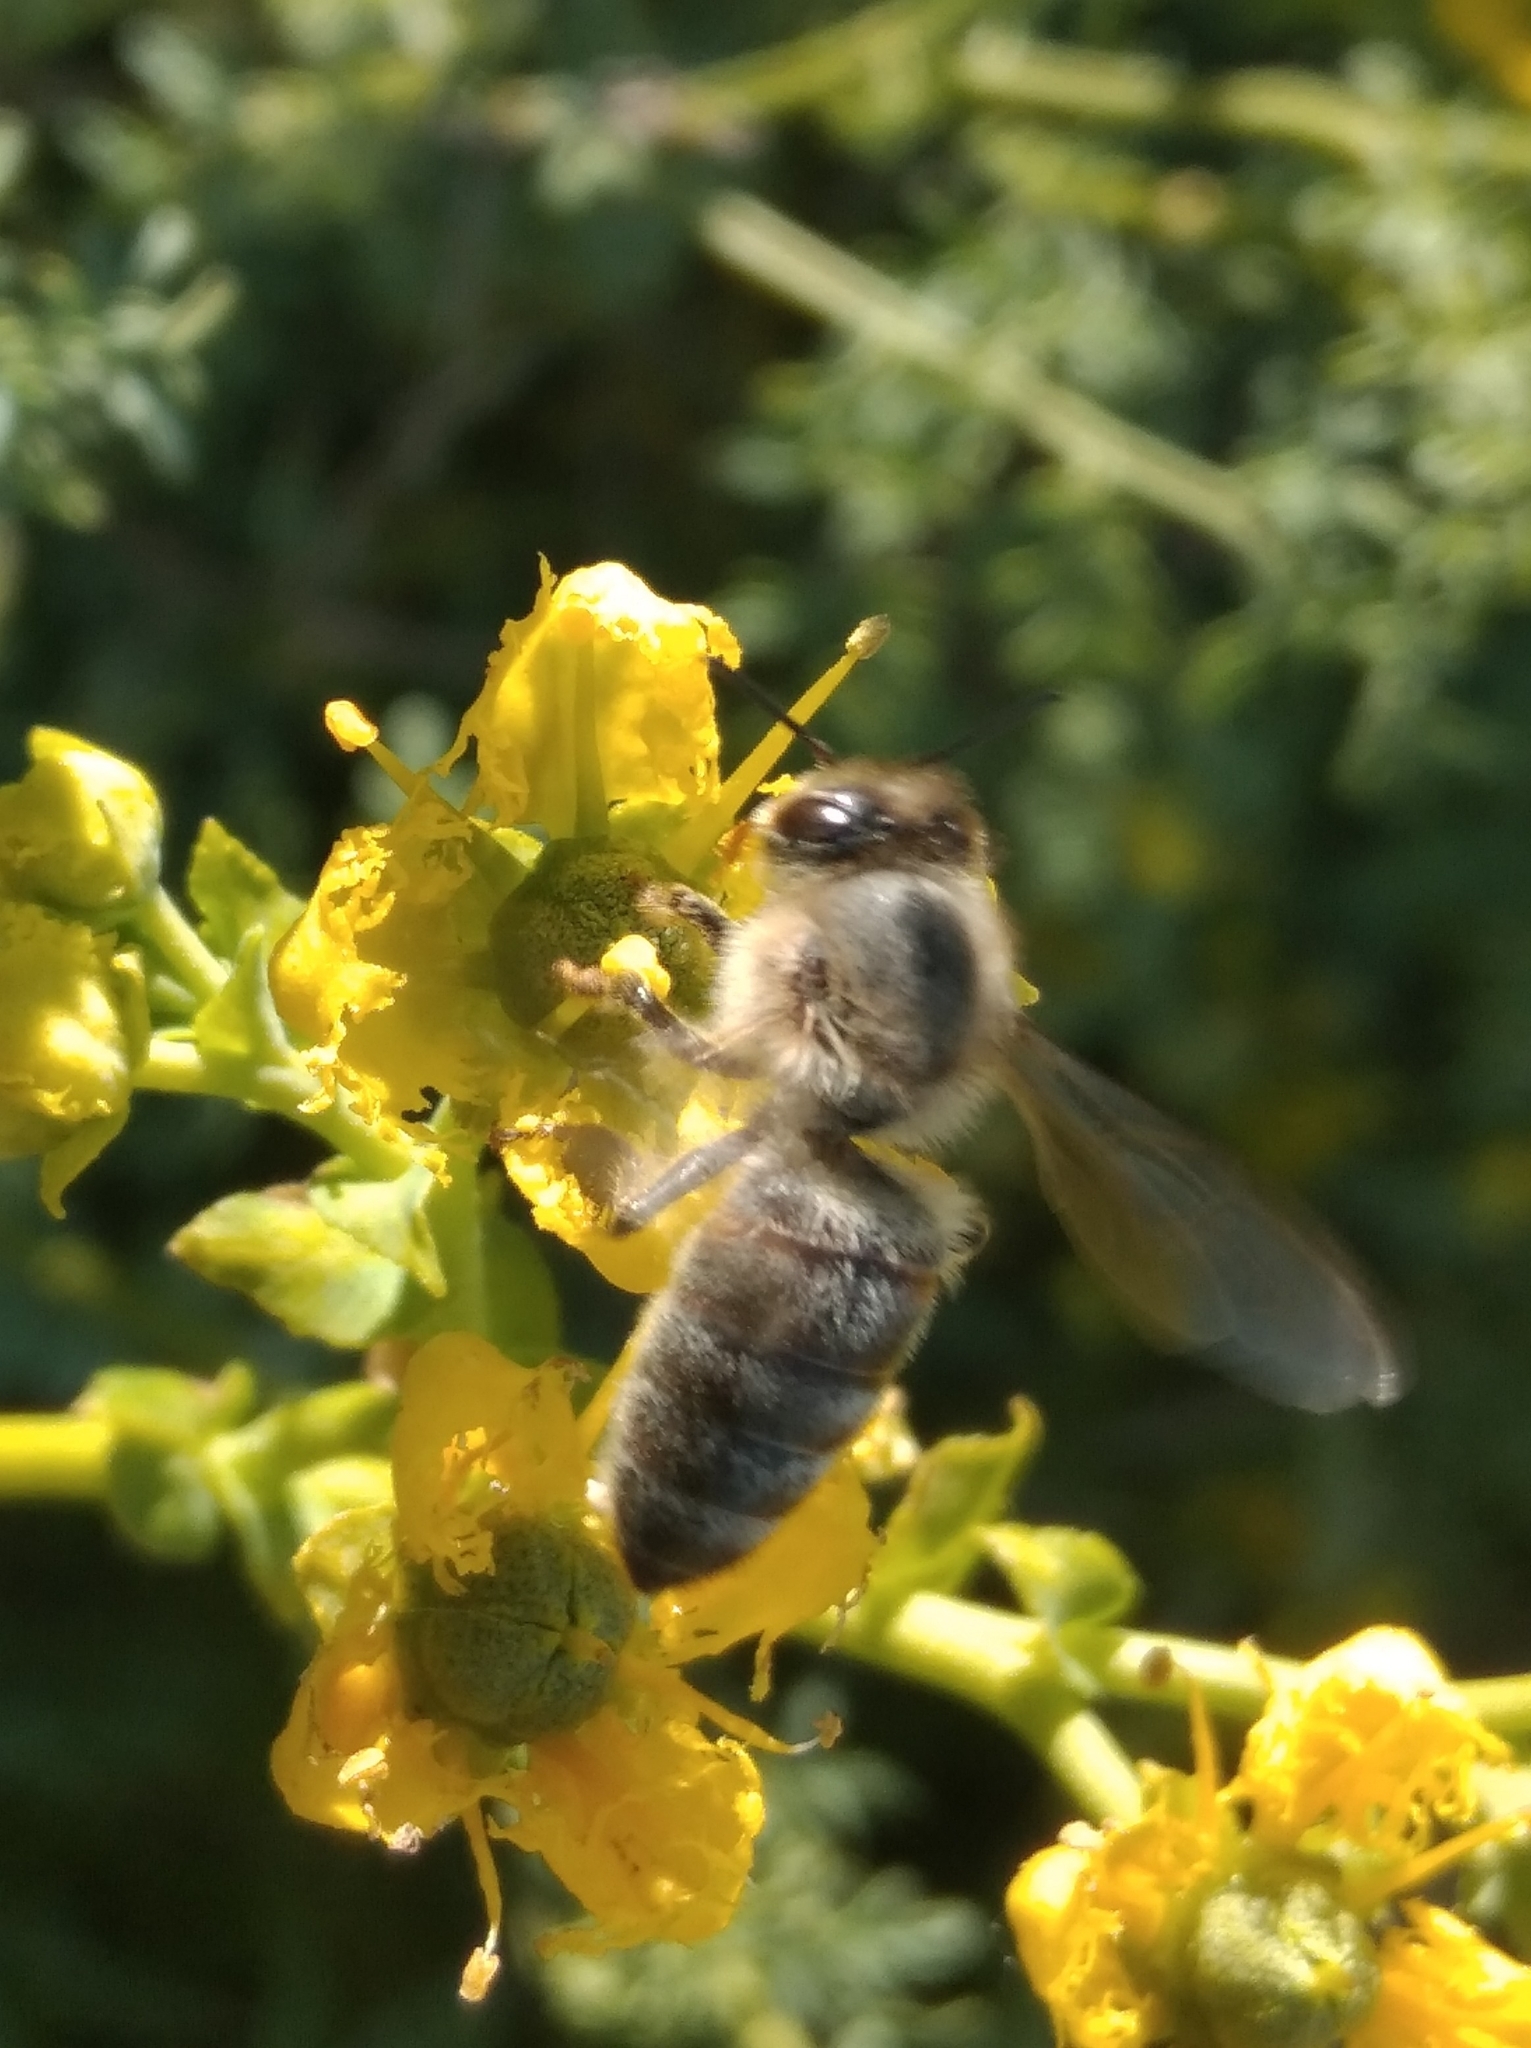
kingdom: Animalia
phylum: Arthropoda
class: Insecta
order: Hymenoptera
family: Apidae
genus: Apis
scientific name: Apis mellifera
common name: Honey bee
